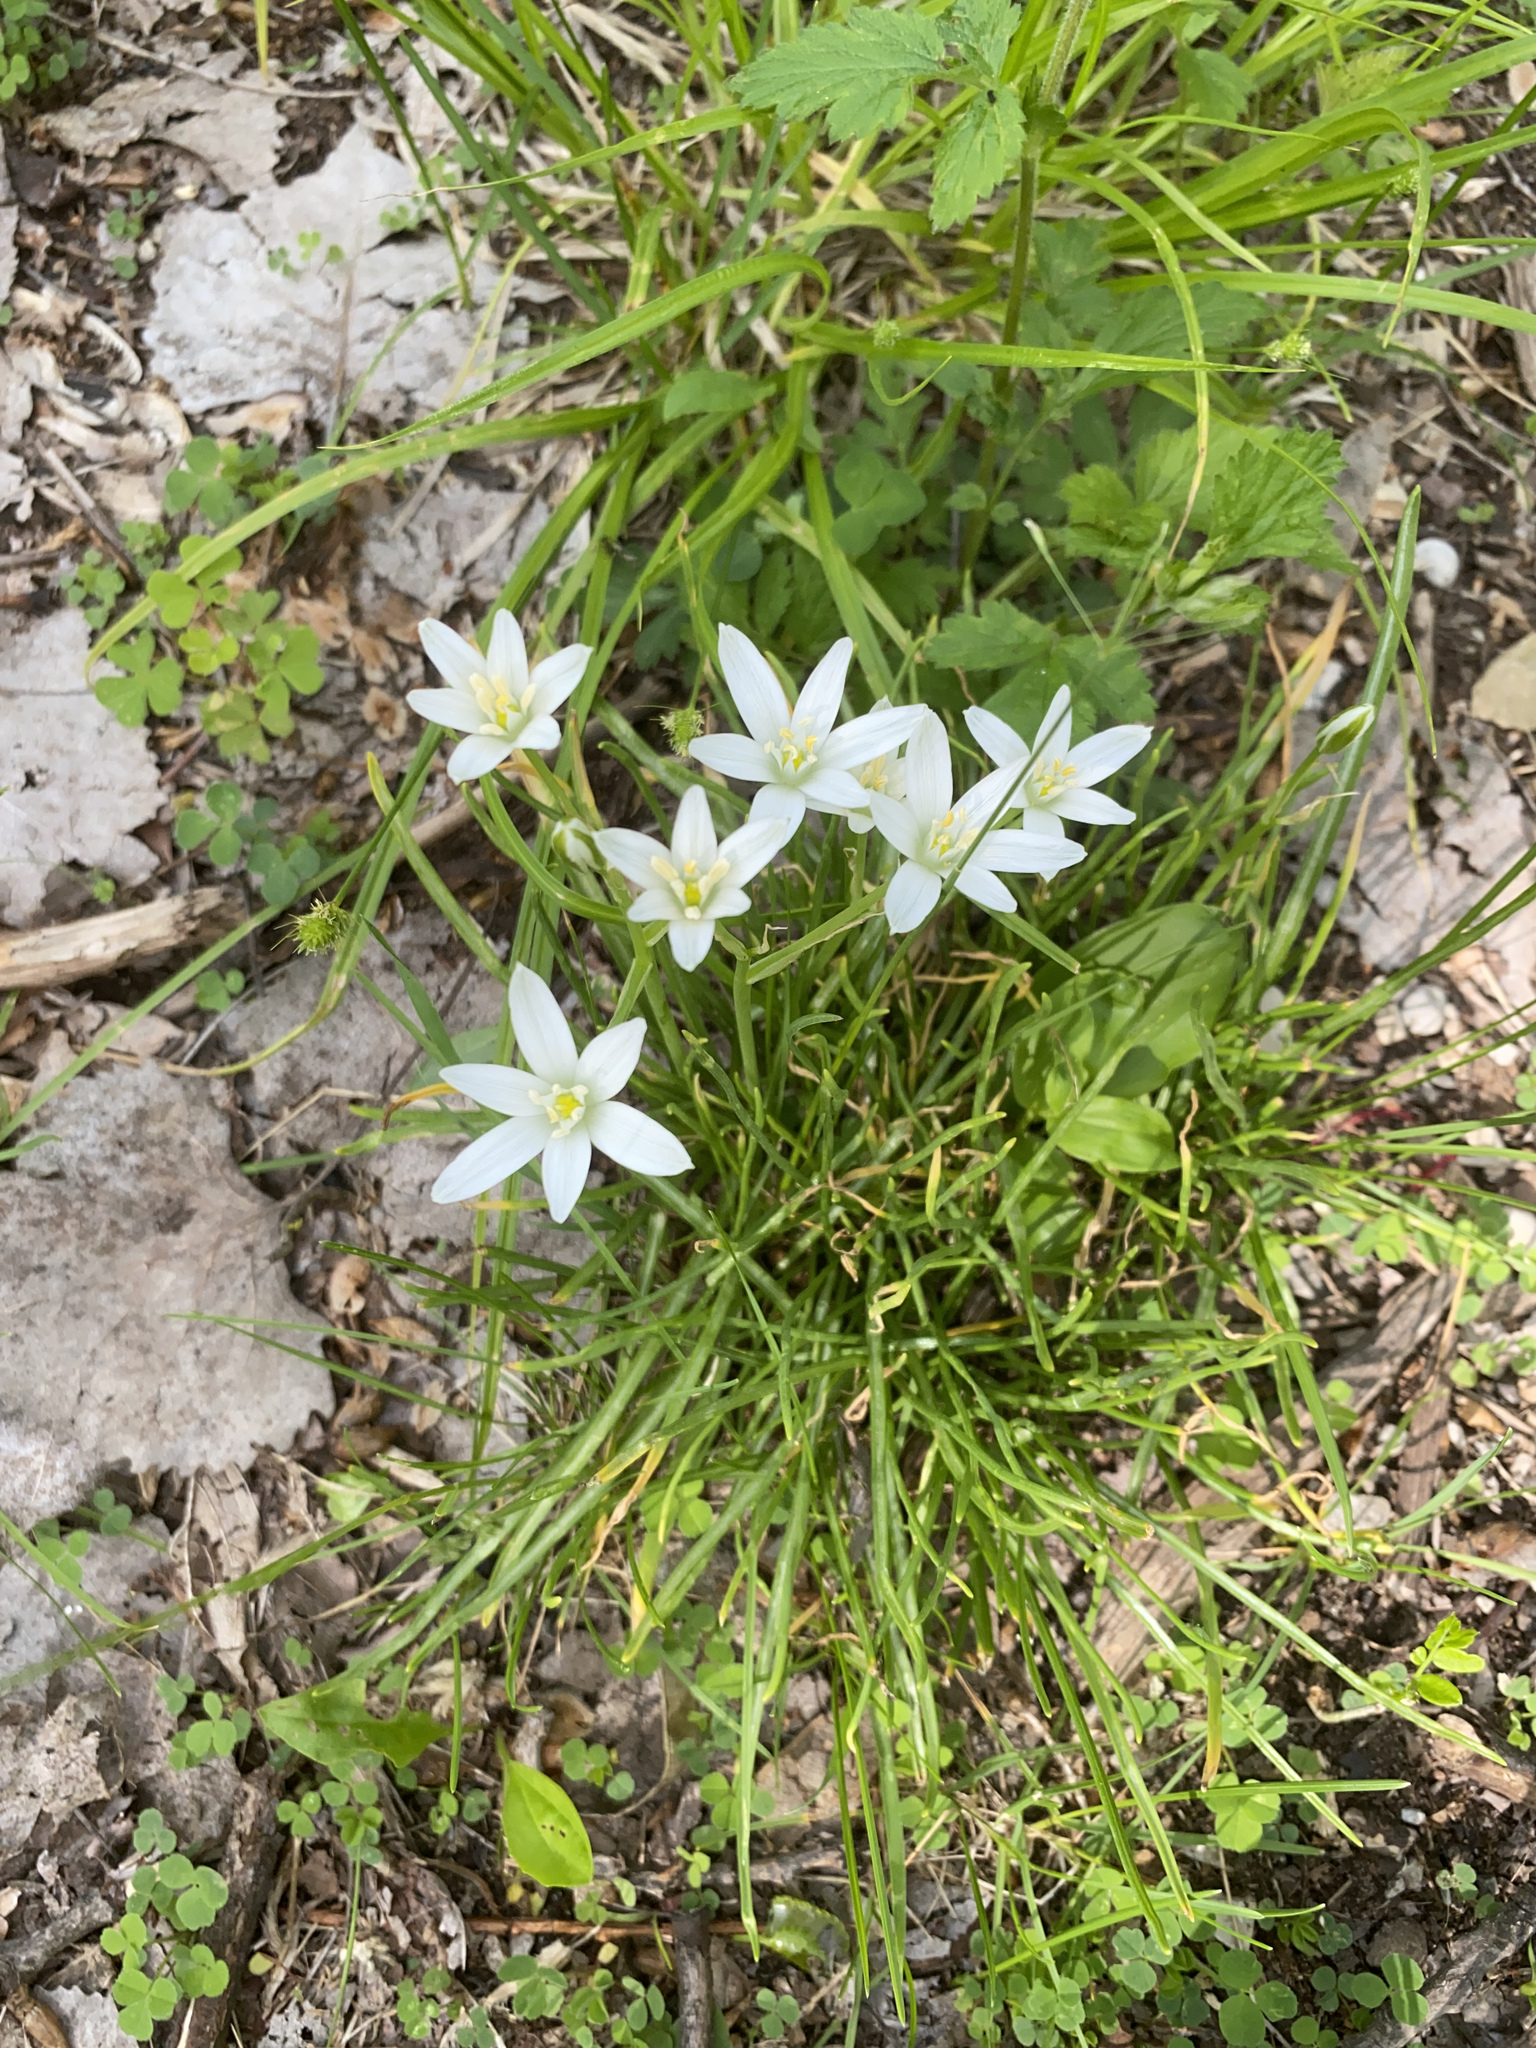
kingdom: Plantae
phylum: Tracheophyta
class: Liliopsida
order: Asparagales
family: Asparagaceae
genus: Ornithogalum
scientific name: Ornithogalum umbellatum
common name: Garden star-of-bethlehem
